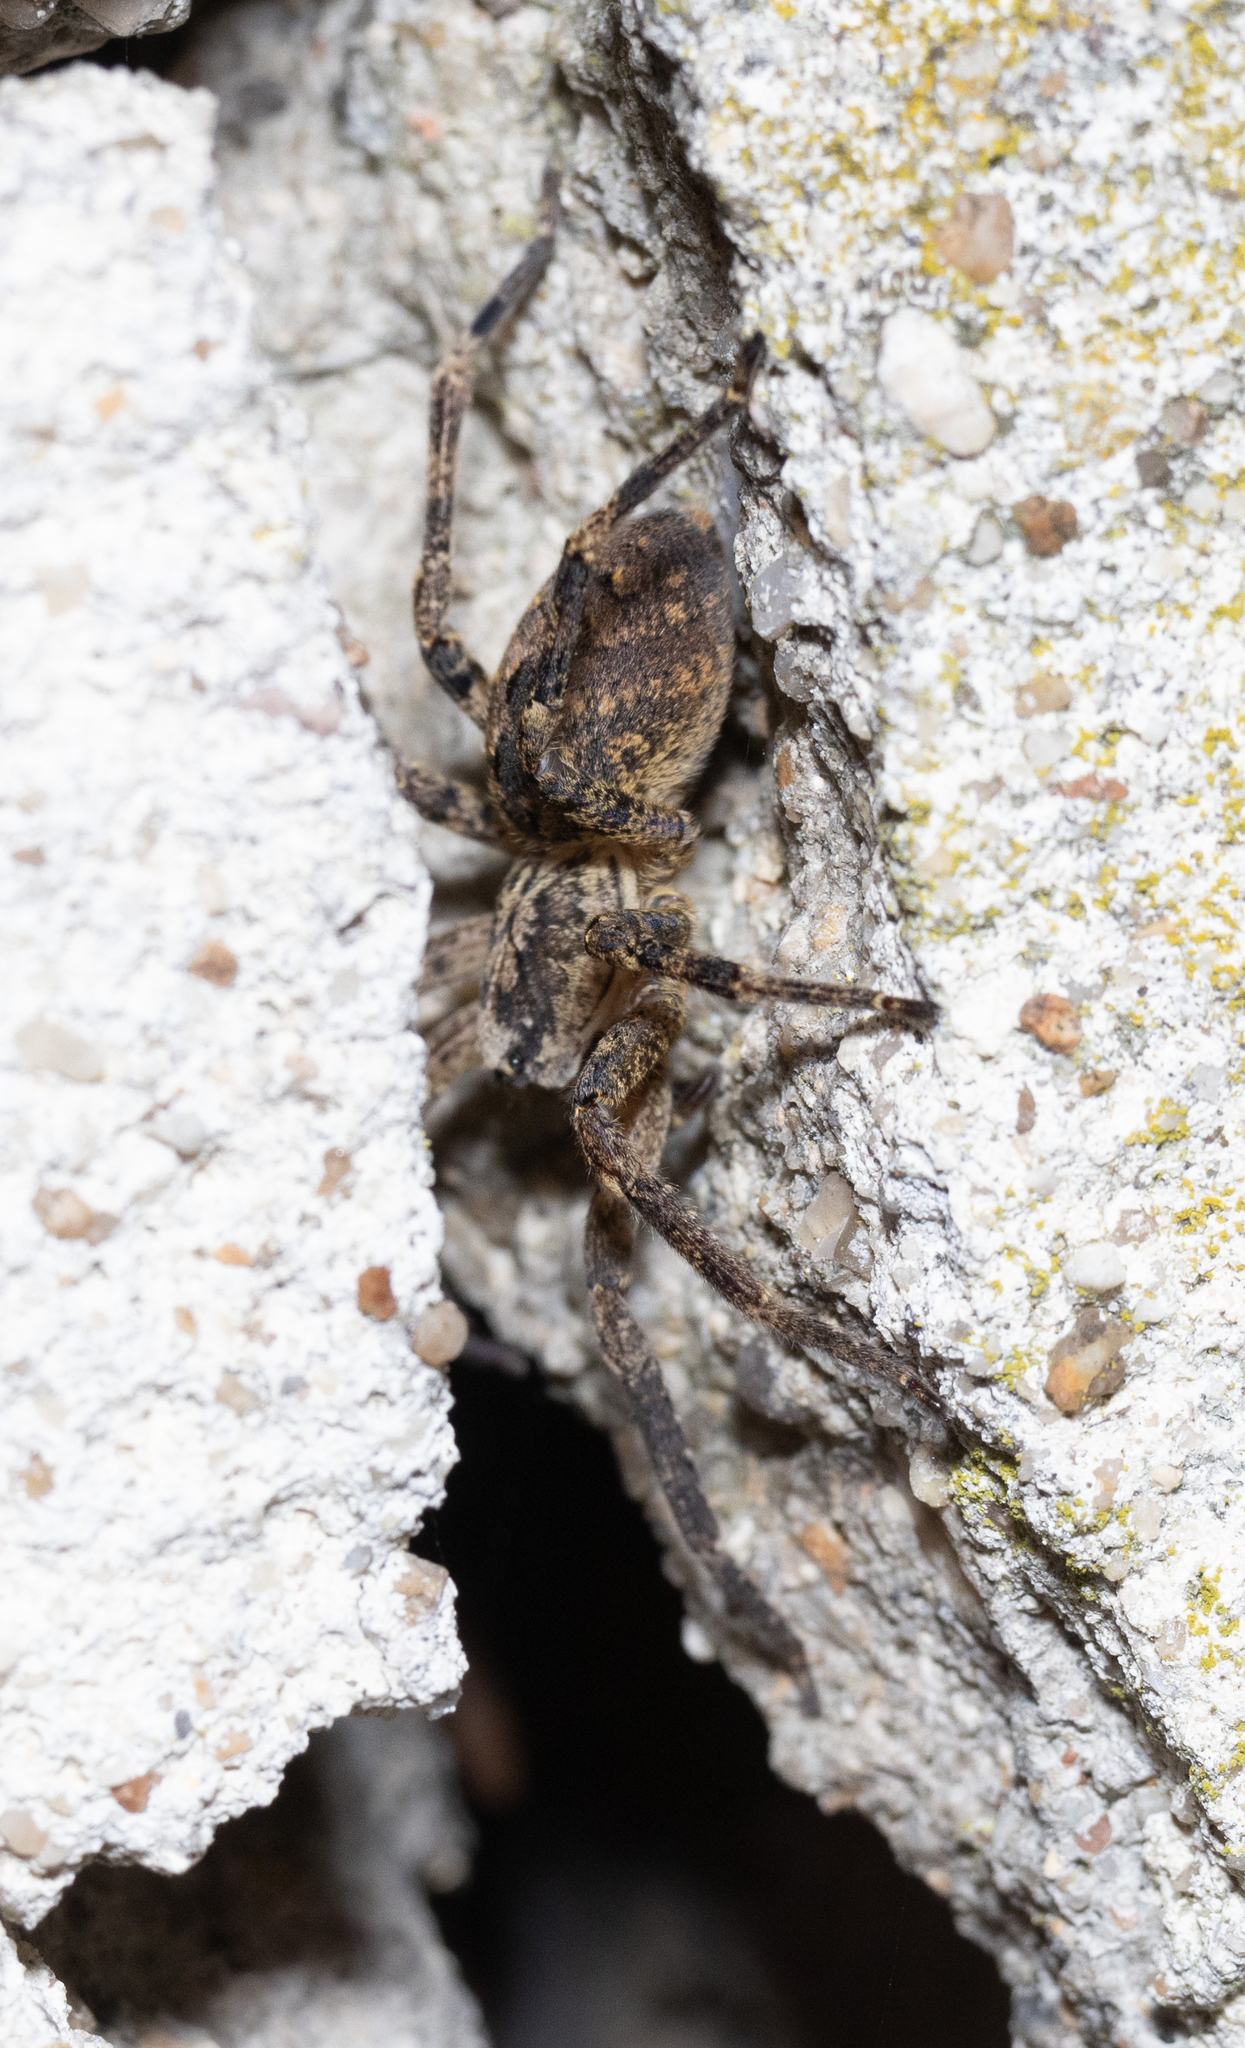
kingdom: Animalia
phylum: Arthropoda
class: Arachnida
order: Araneae
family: Zoropsidae
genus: Zoropsis
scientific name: Zoropsis spinimana
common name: Zoropsid spider
